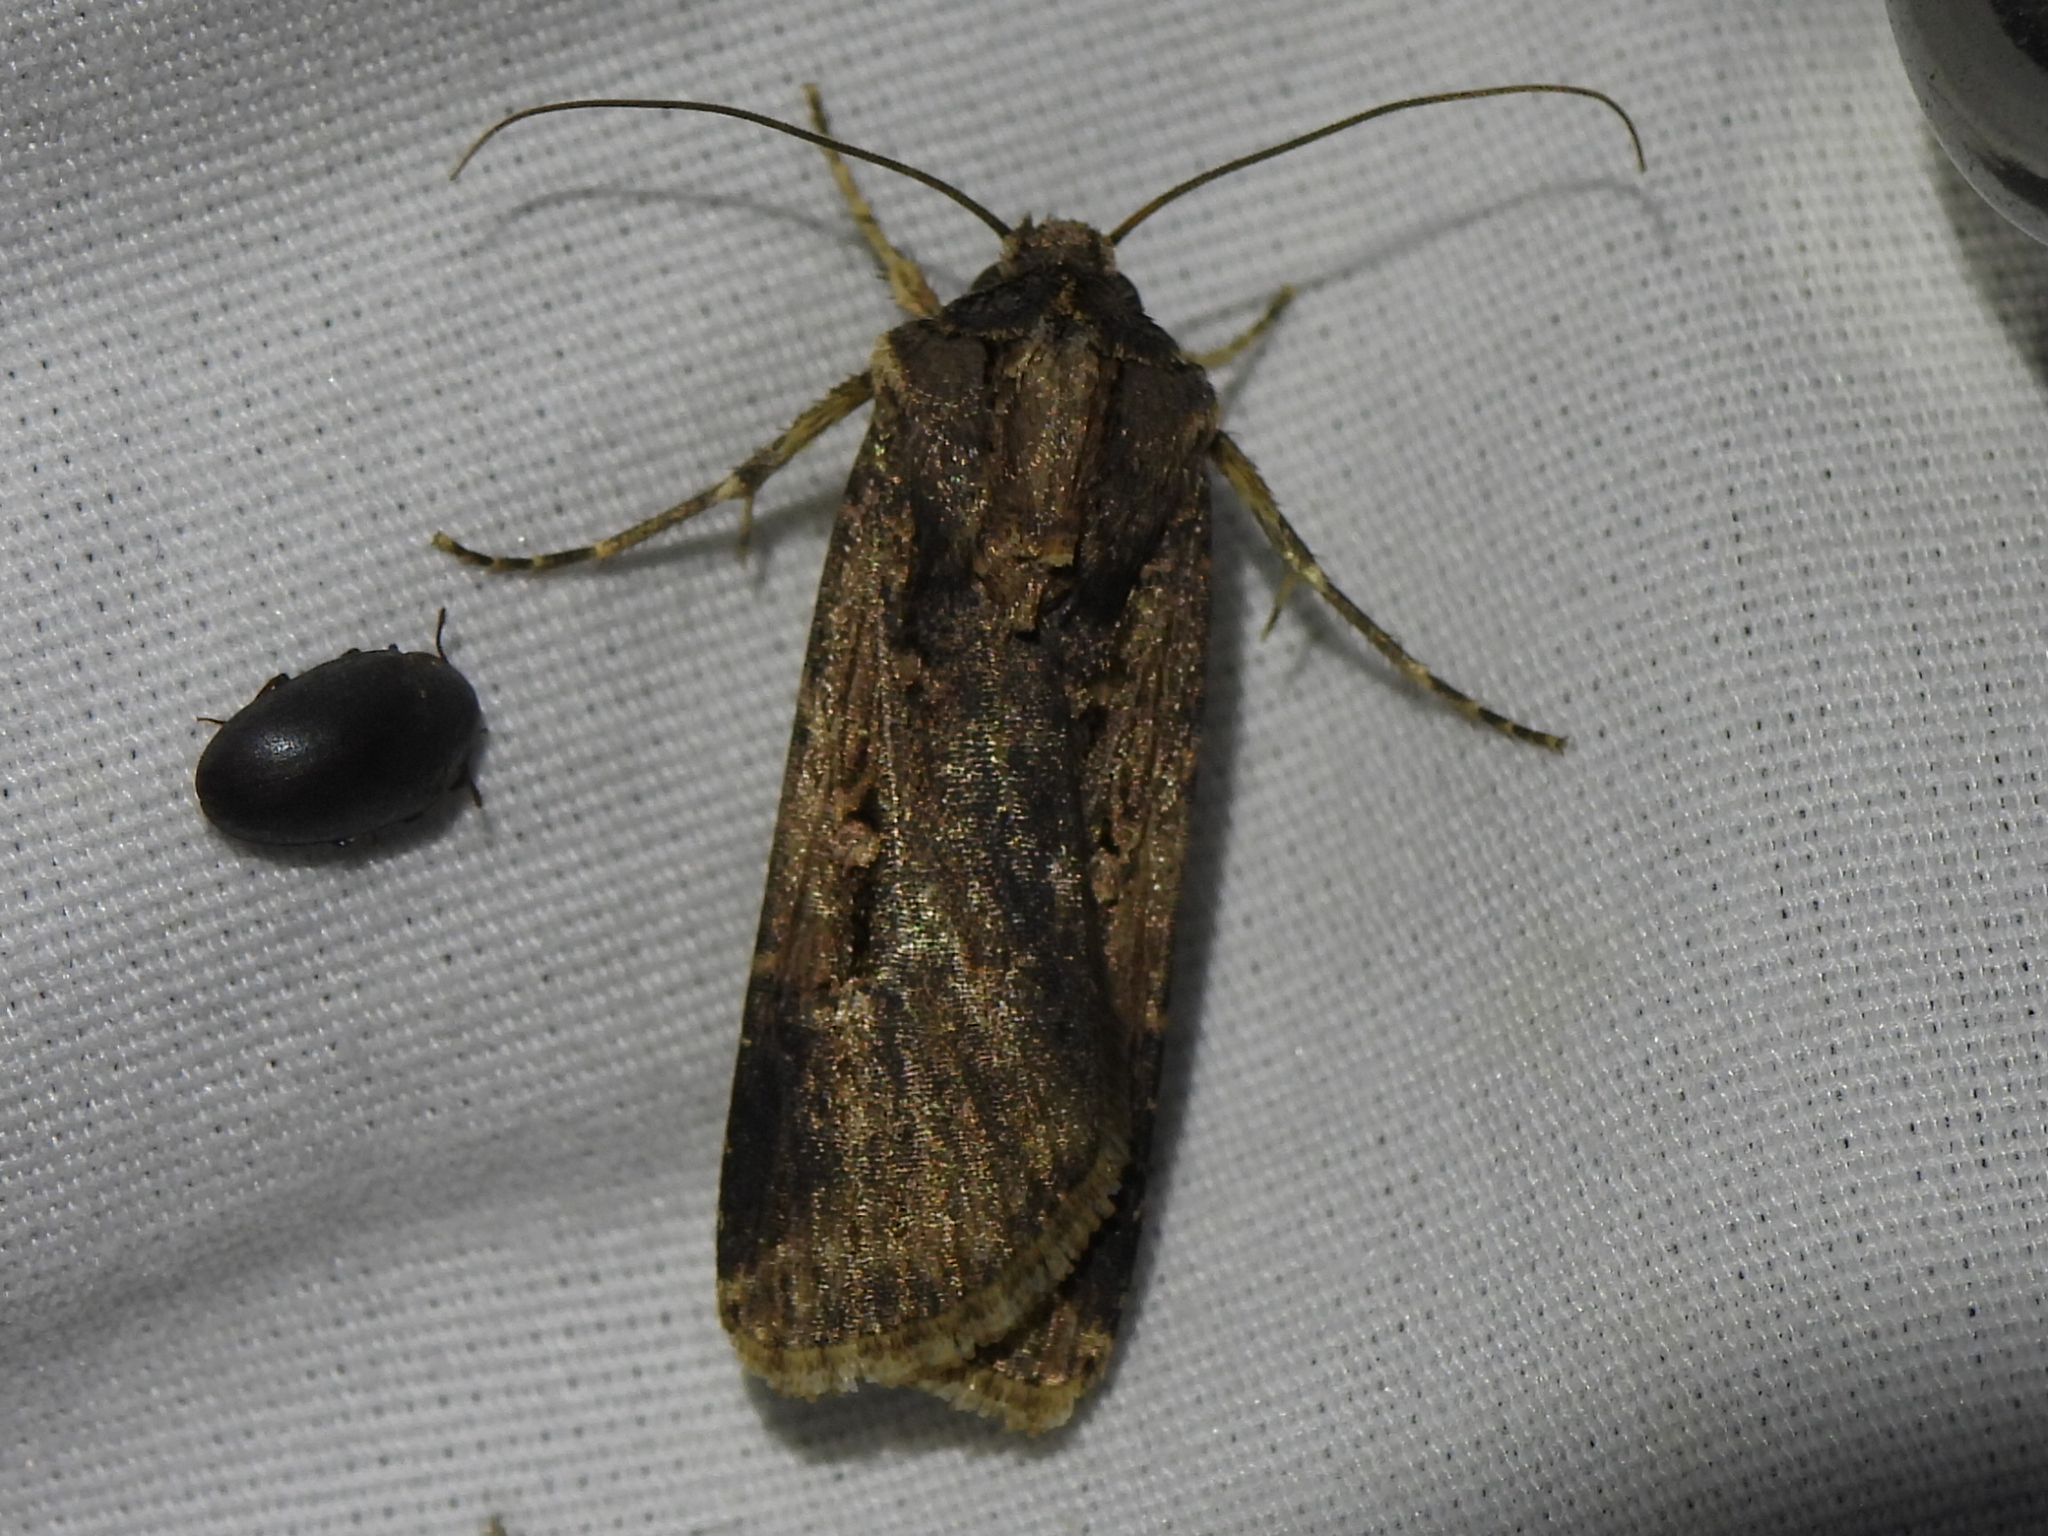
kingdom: Animalia
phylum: Arthropoda
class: Insecta
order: Lepidoptera
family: Noctuidae
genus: Feltia
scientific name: Feltia subterranea
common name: Granulate cutworm
